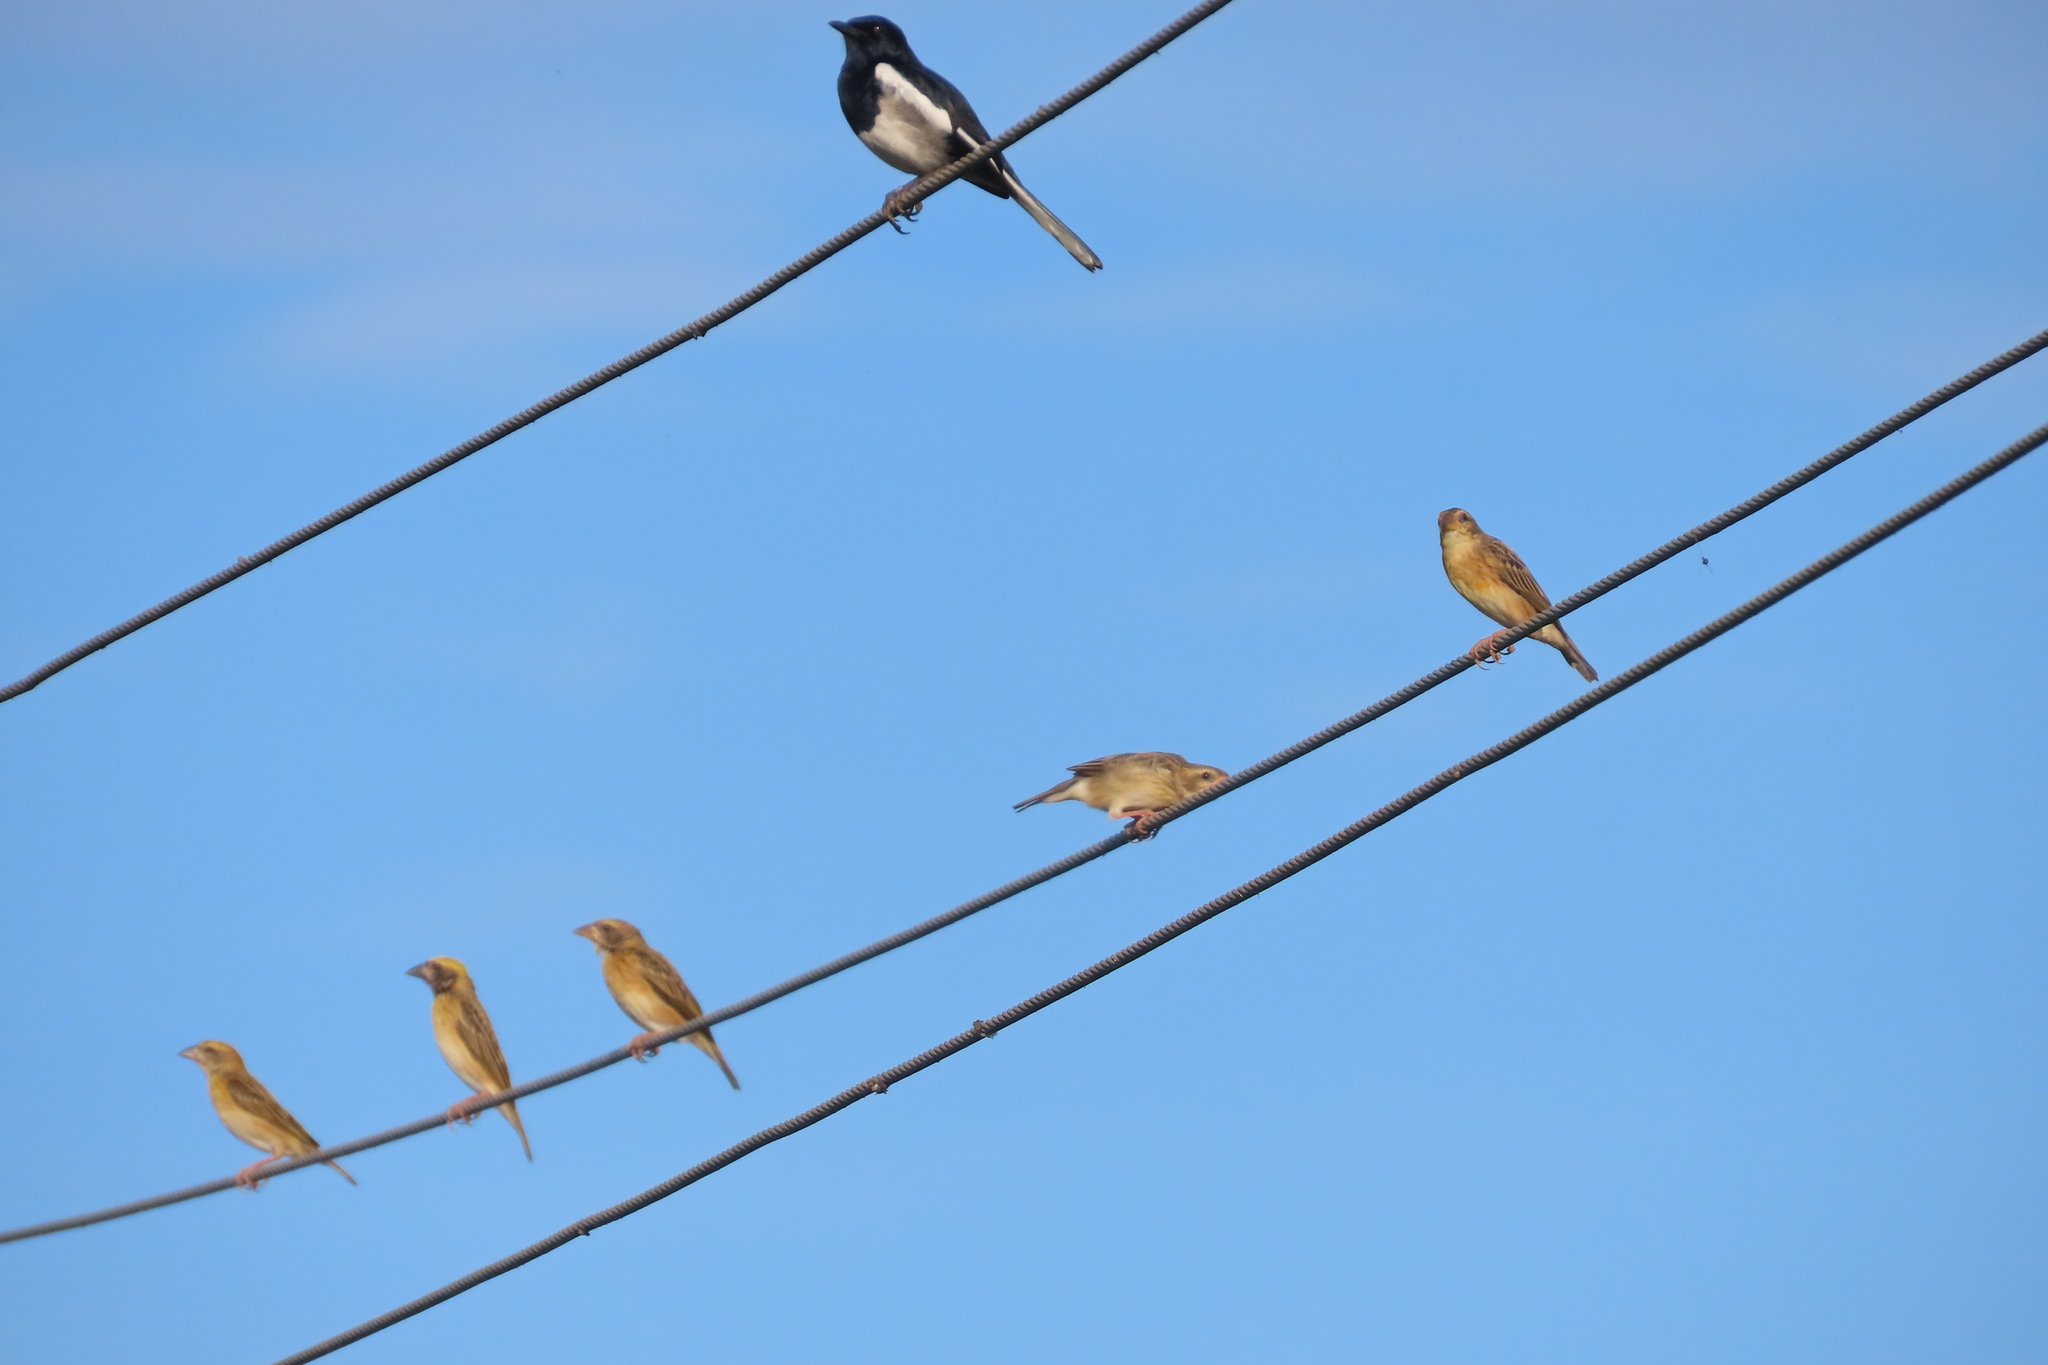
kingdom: Animalia
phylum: Chordata
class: Aves
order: Passeriformes
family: Ploceidae
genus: Ploceus
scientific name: Ploceus philippinus
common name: Baya weaver
